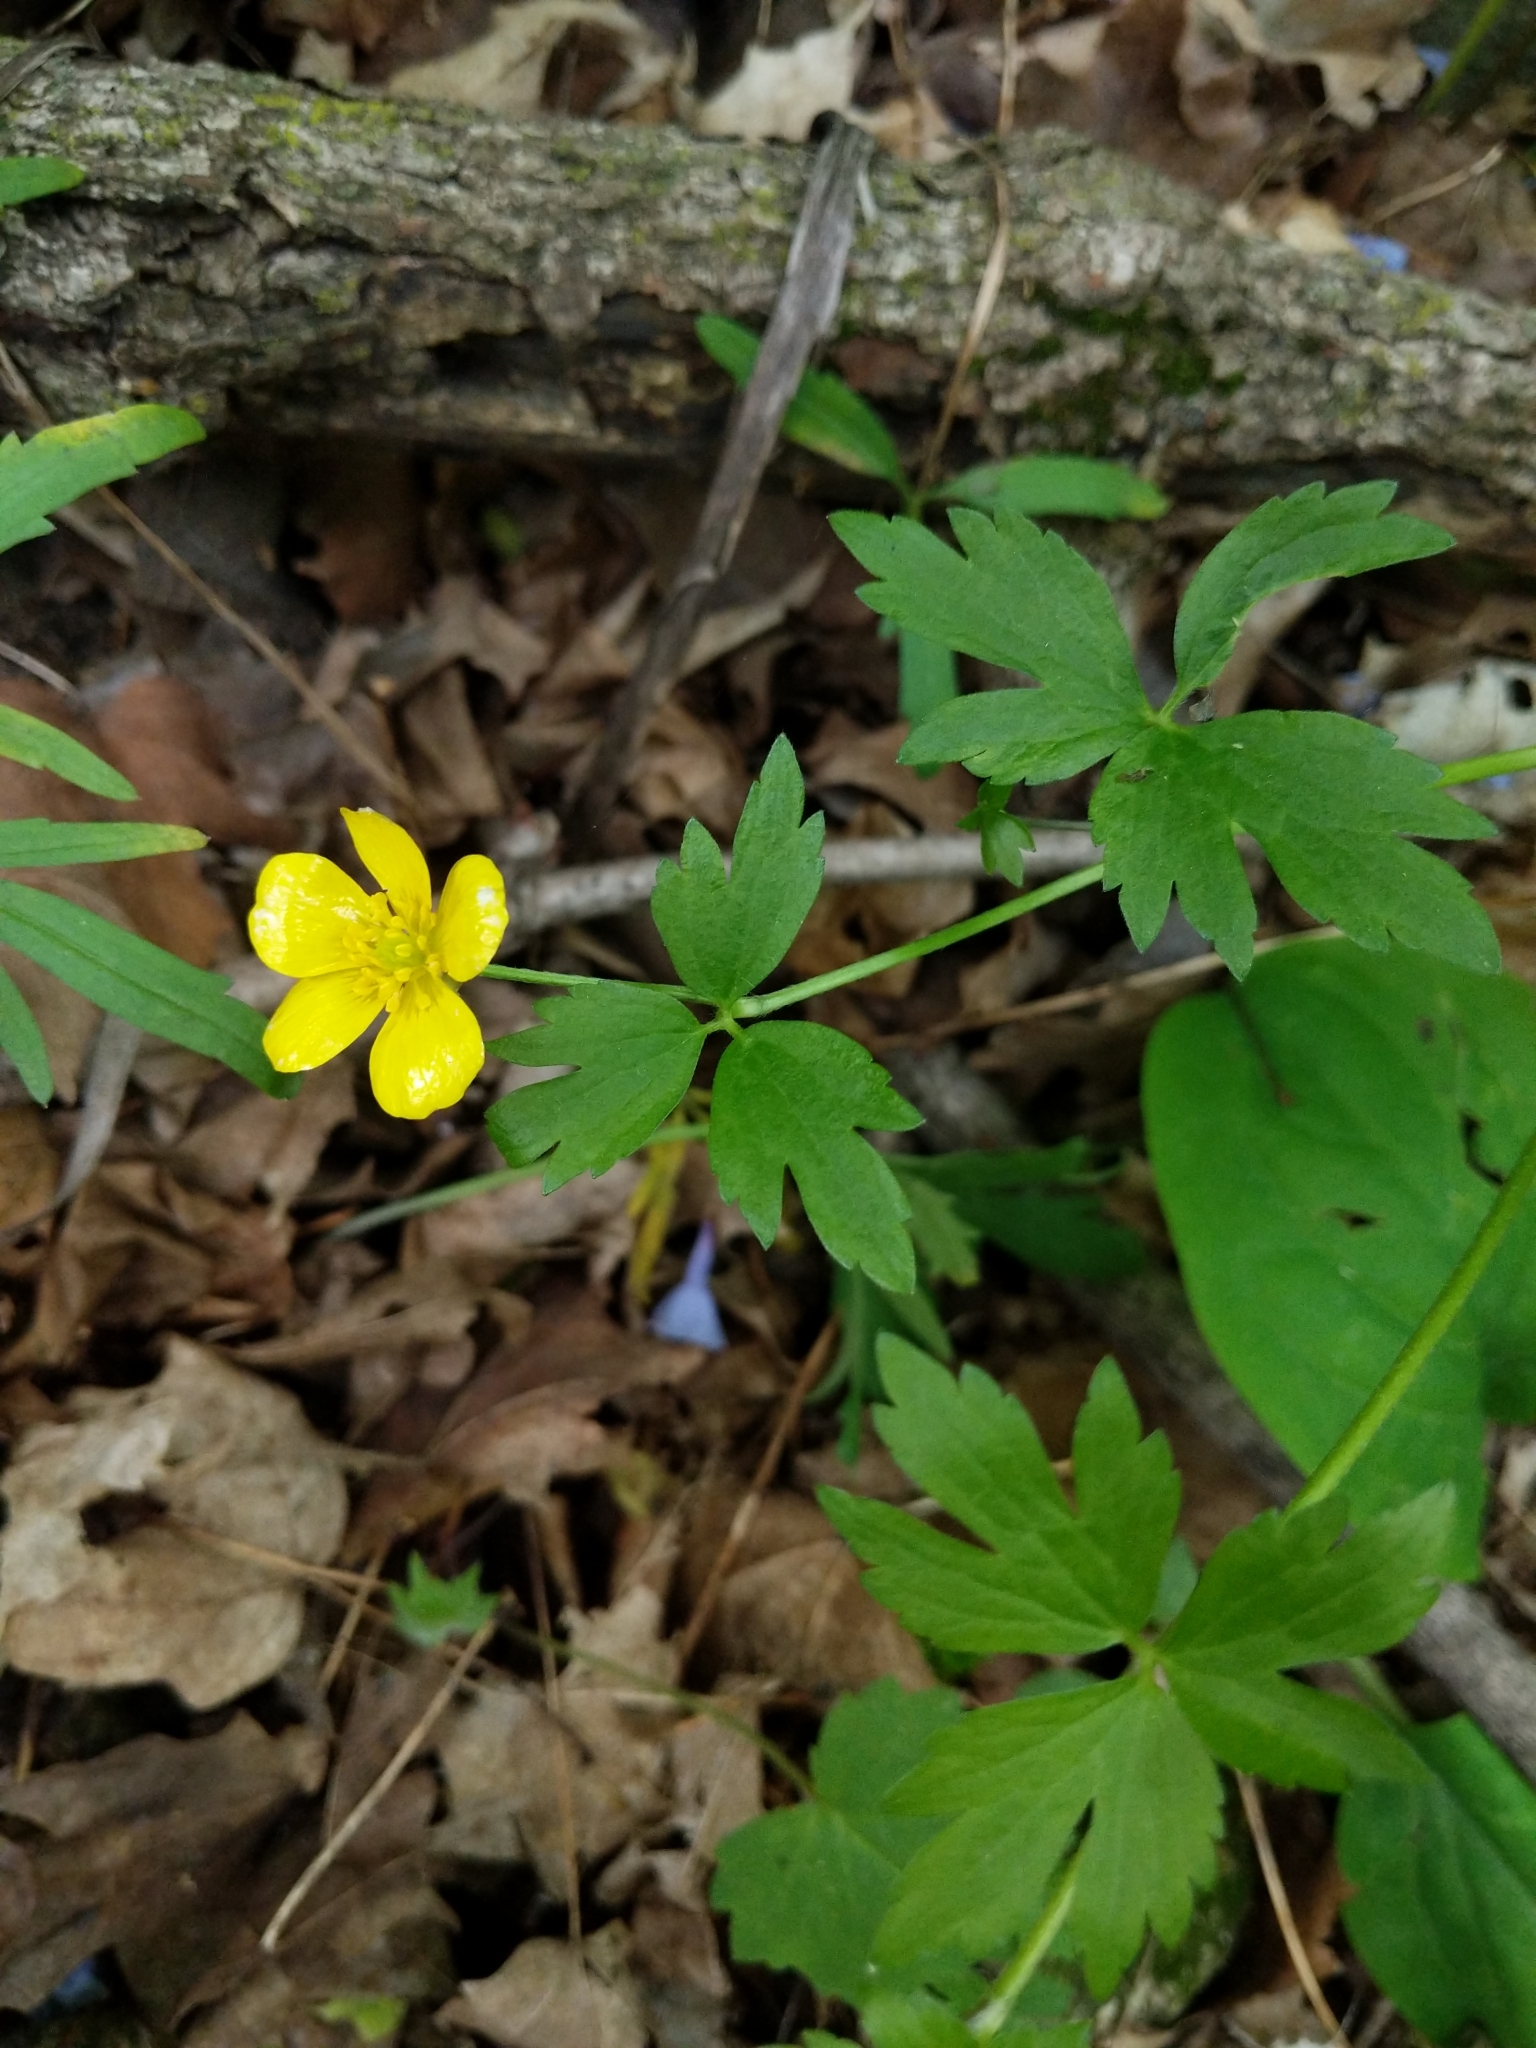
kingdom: Plantae
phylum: Tracheophyta
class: Magnoliopsida
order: Ranunculales
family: Ranunculaceae
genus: Ranunculus
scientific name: Ranunculus hispidus
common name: Bristly buttercup
